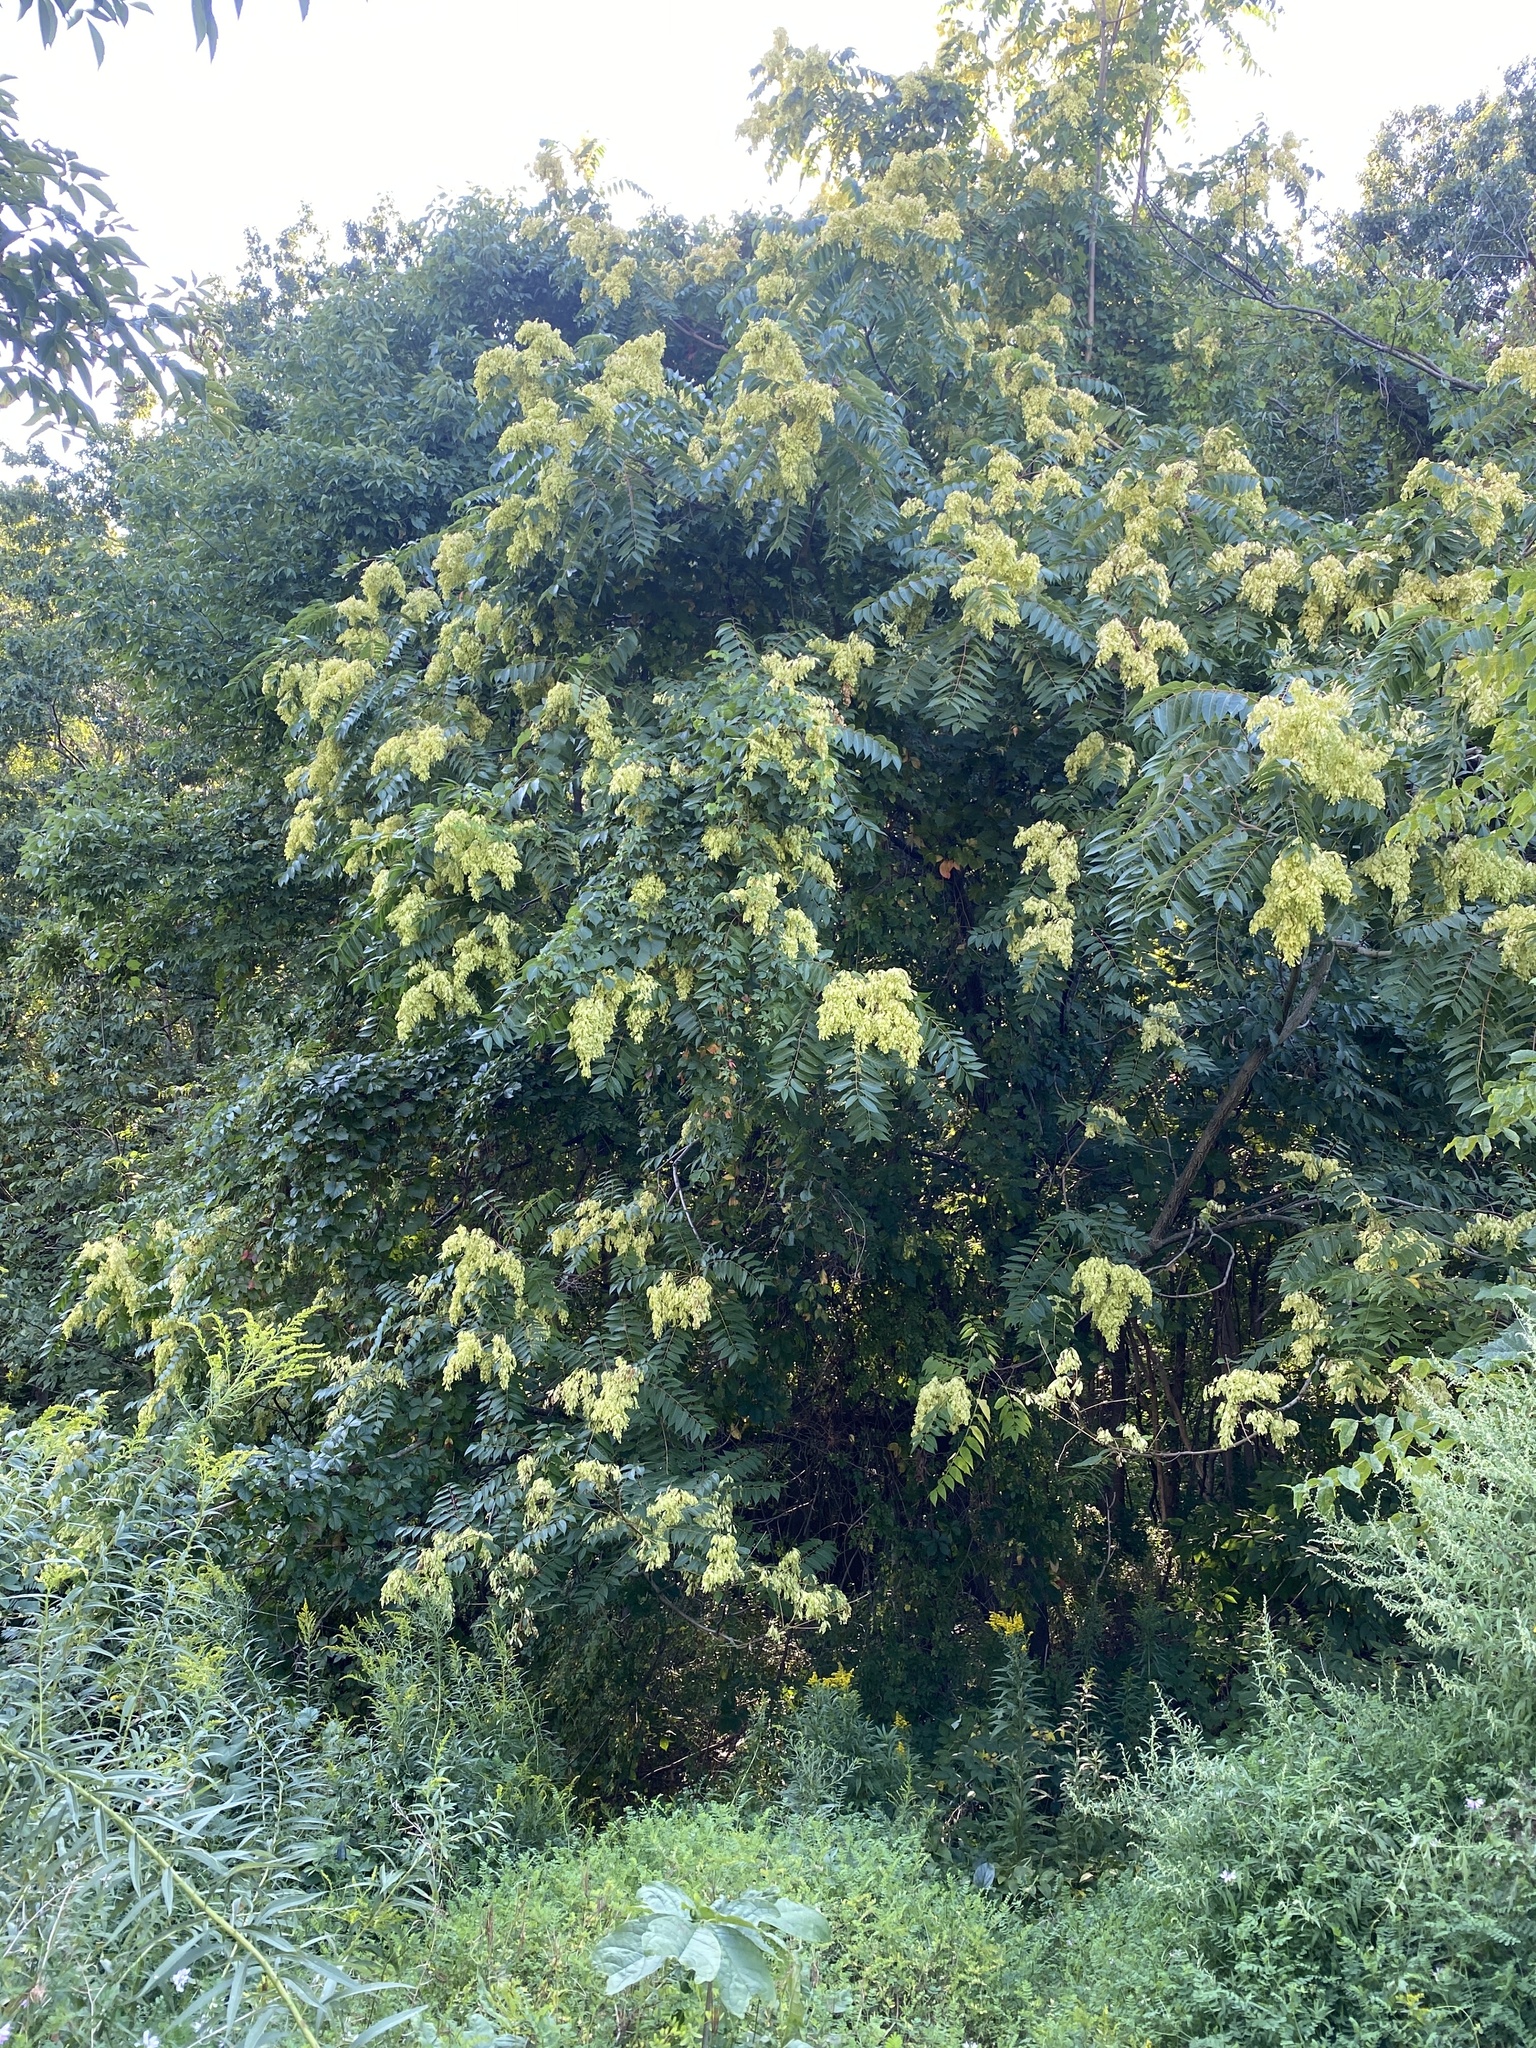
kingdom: Plantae
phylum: Tracheophyta
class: Magnoliopsida
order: Sapindales
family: Simaroubaceae
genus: Ailanthus
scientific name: Ailanthus altissima
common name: Tree-of-heaven
